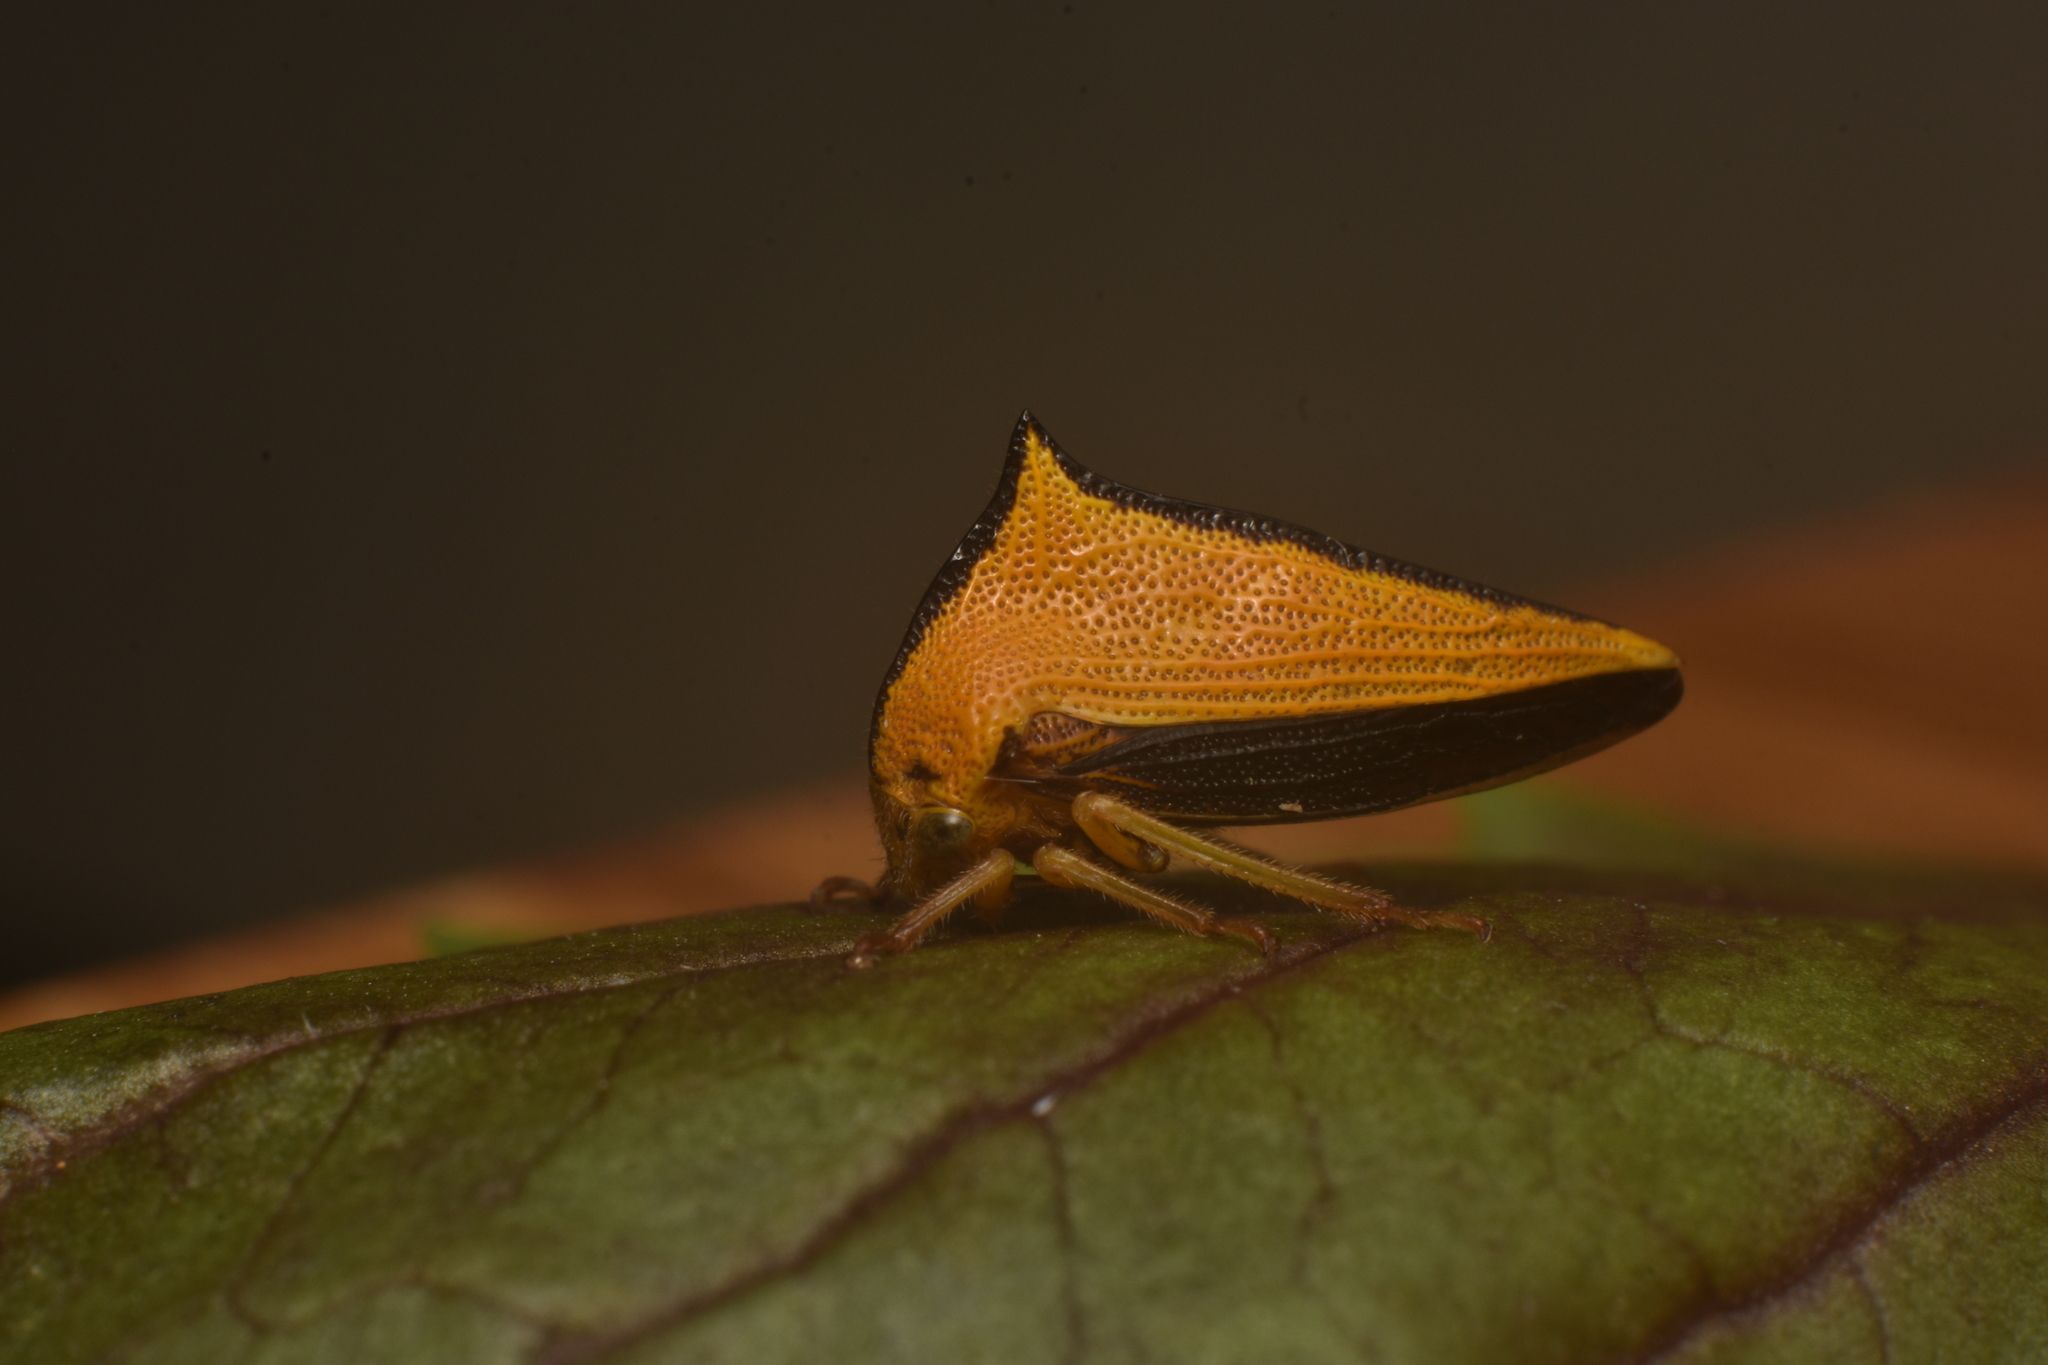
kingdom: Animalia
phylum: Arthropoda
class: Insecta
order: Hemiptera
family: Membracidae
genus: Ennya
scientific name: Ennya sobria
